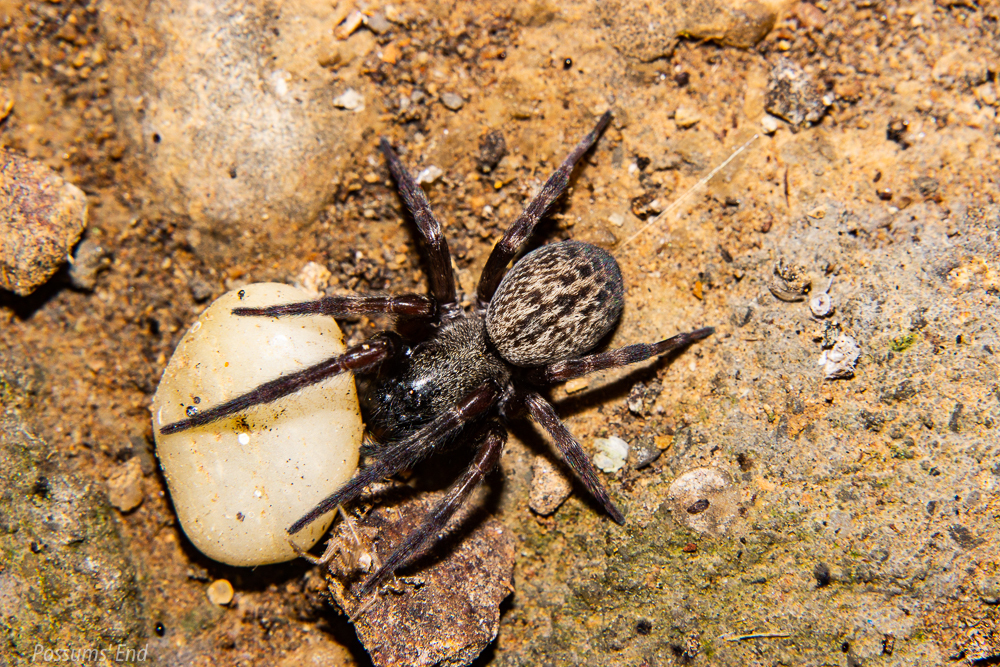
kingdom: Animalia
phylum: Arthropoda
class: Arachnida
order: Araneae
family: Desidae
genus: Badumna
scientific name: Badumna longinqua
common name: Gray house spider
